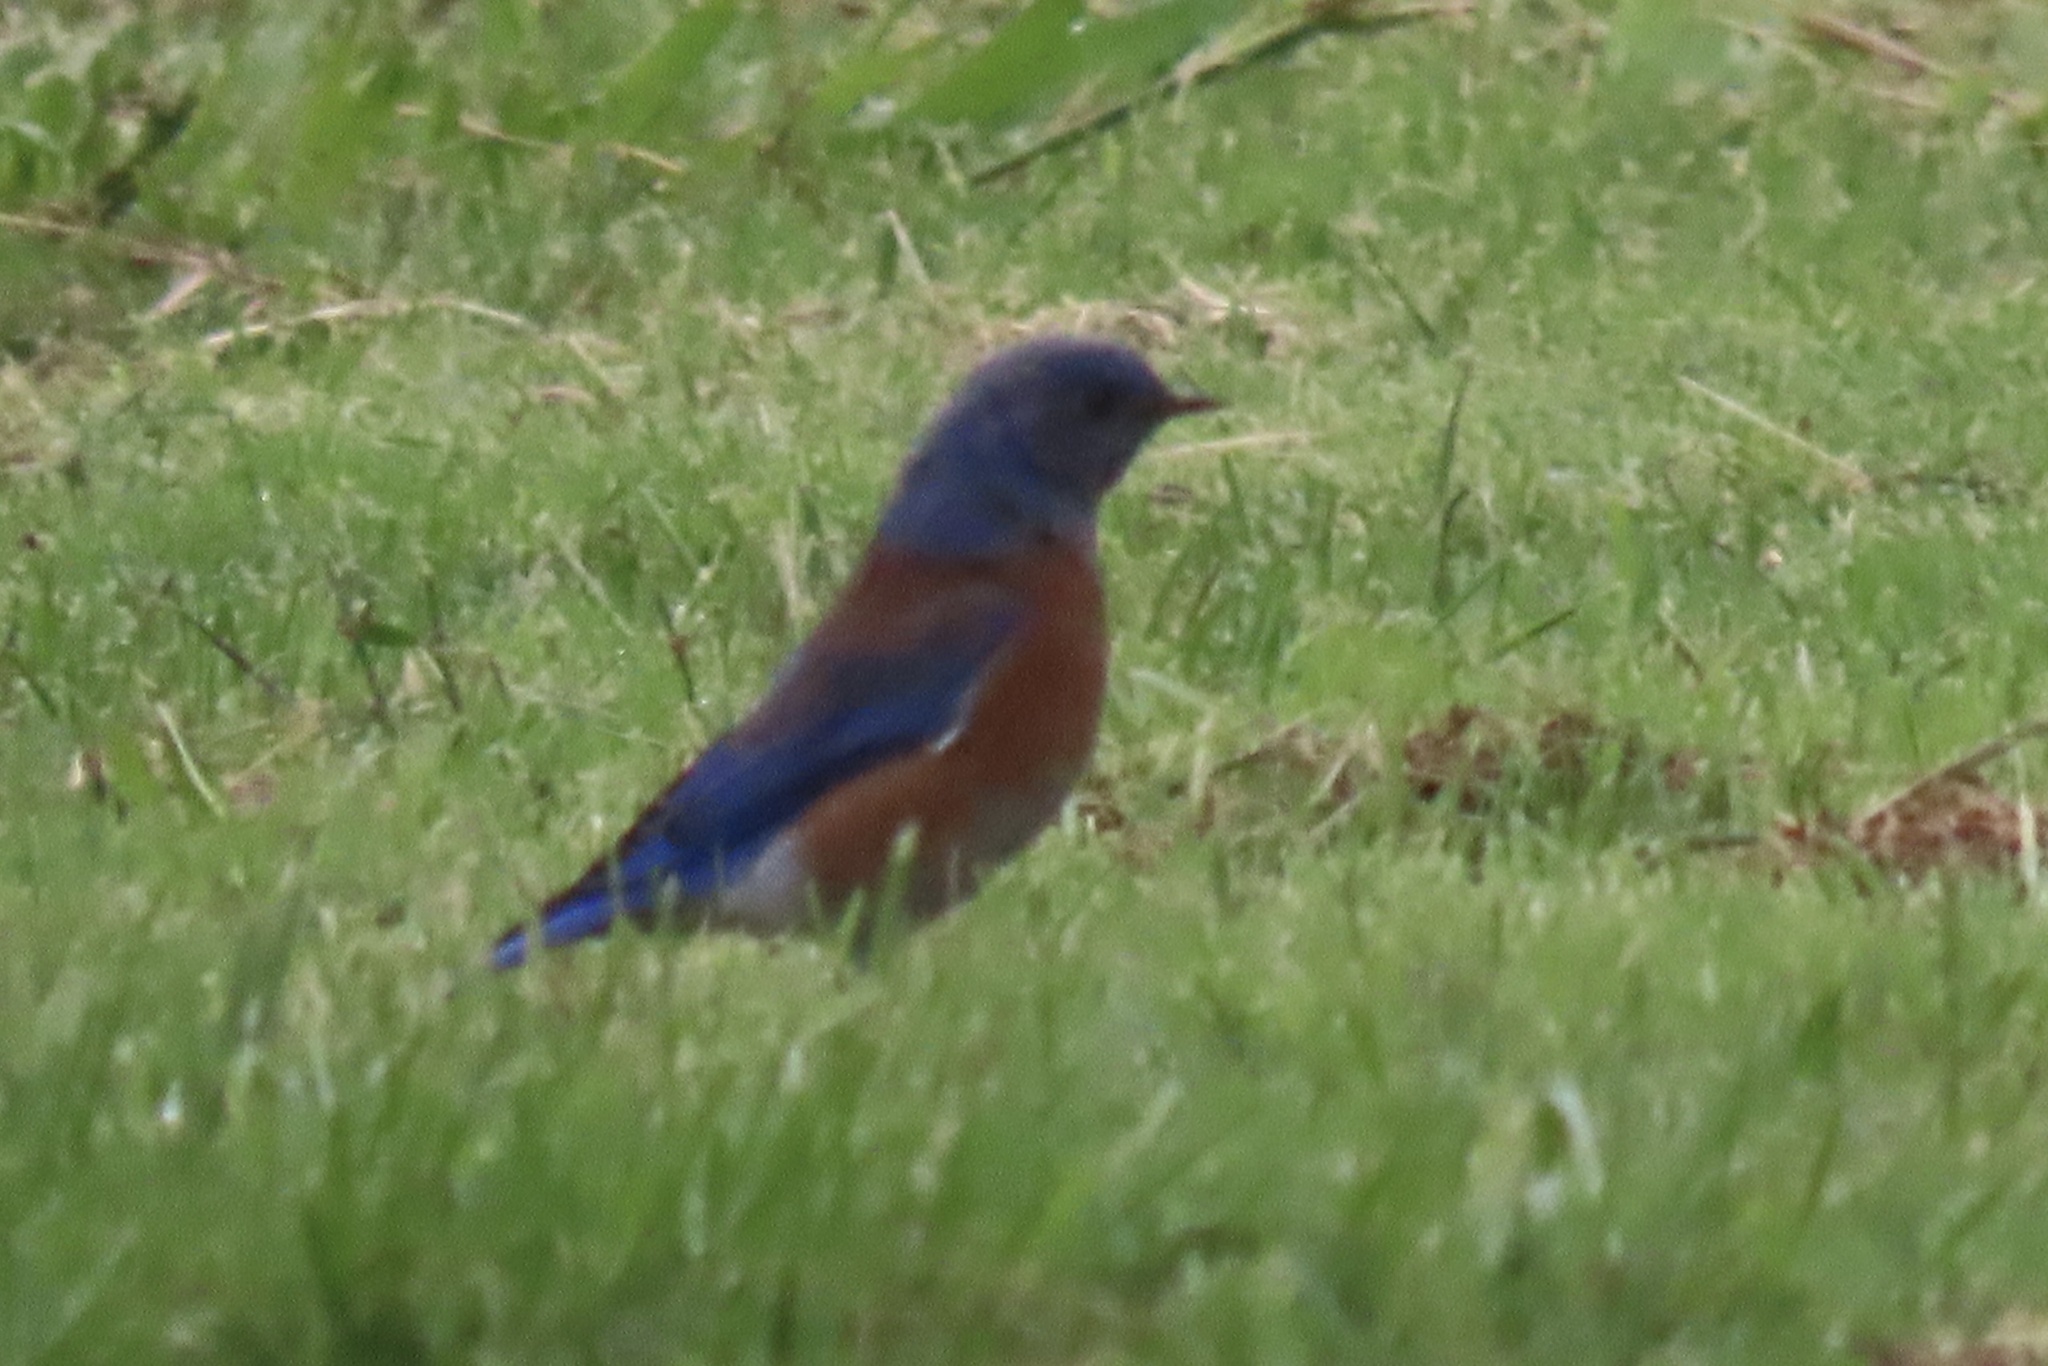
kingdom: Animalia
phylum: Chordata
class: Aves
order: Passeriformes
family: Turdidae
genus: Sialia
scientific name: Sialia mexicana
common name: Western bluebird
